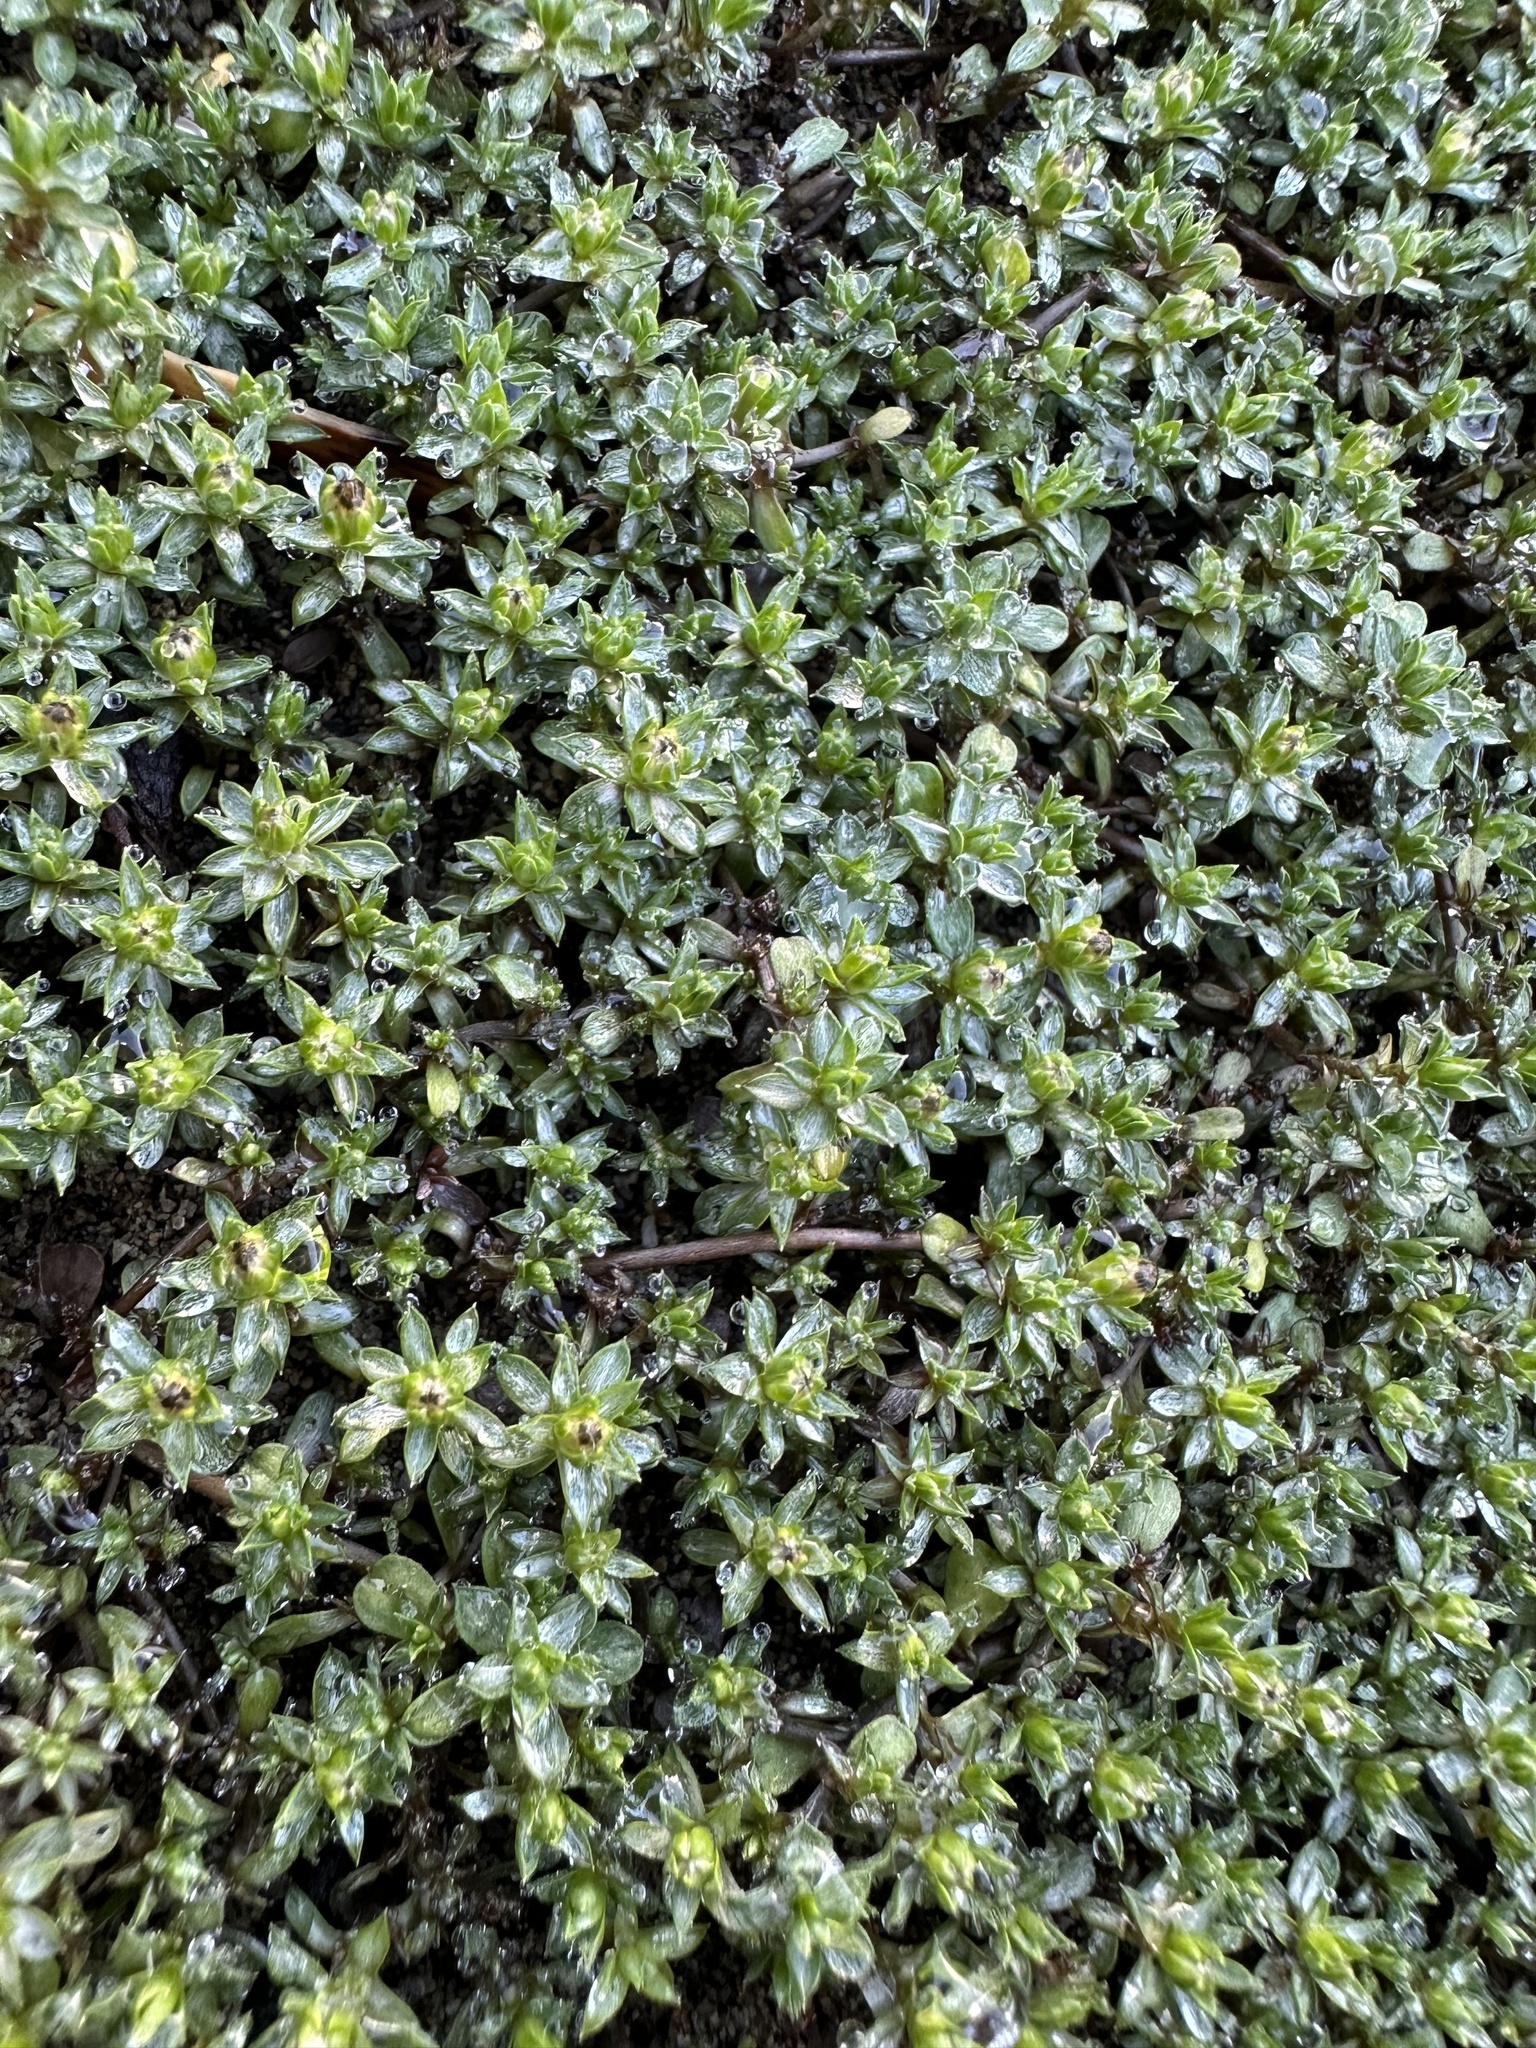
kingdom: Plantae
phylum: Tracheophyta
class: Magnoliopsida
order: Asterales
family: Asteraceae
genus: Raoulia
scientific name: Raoulia tenuicaulis
